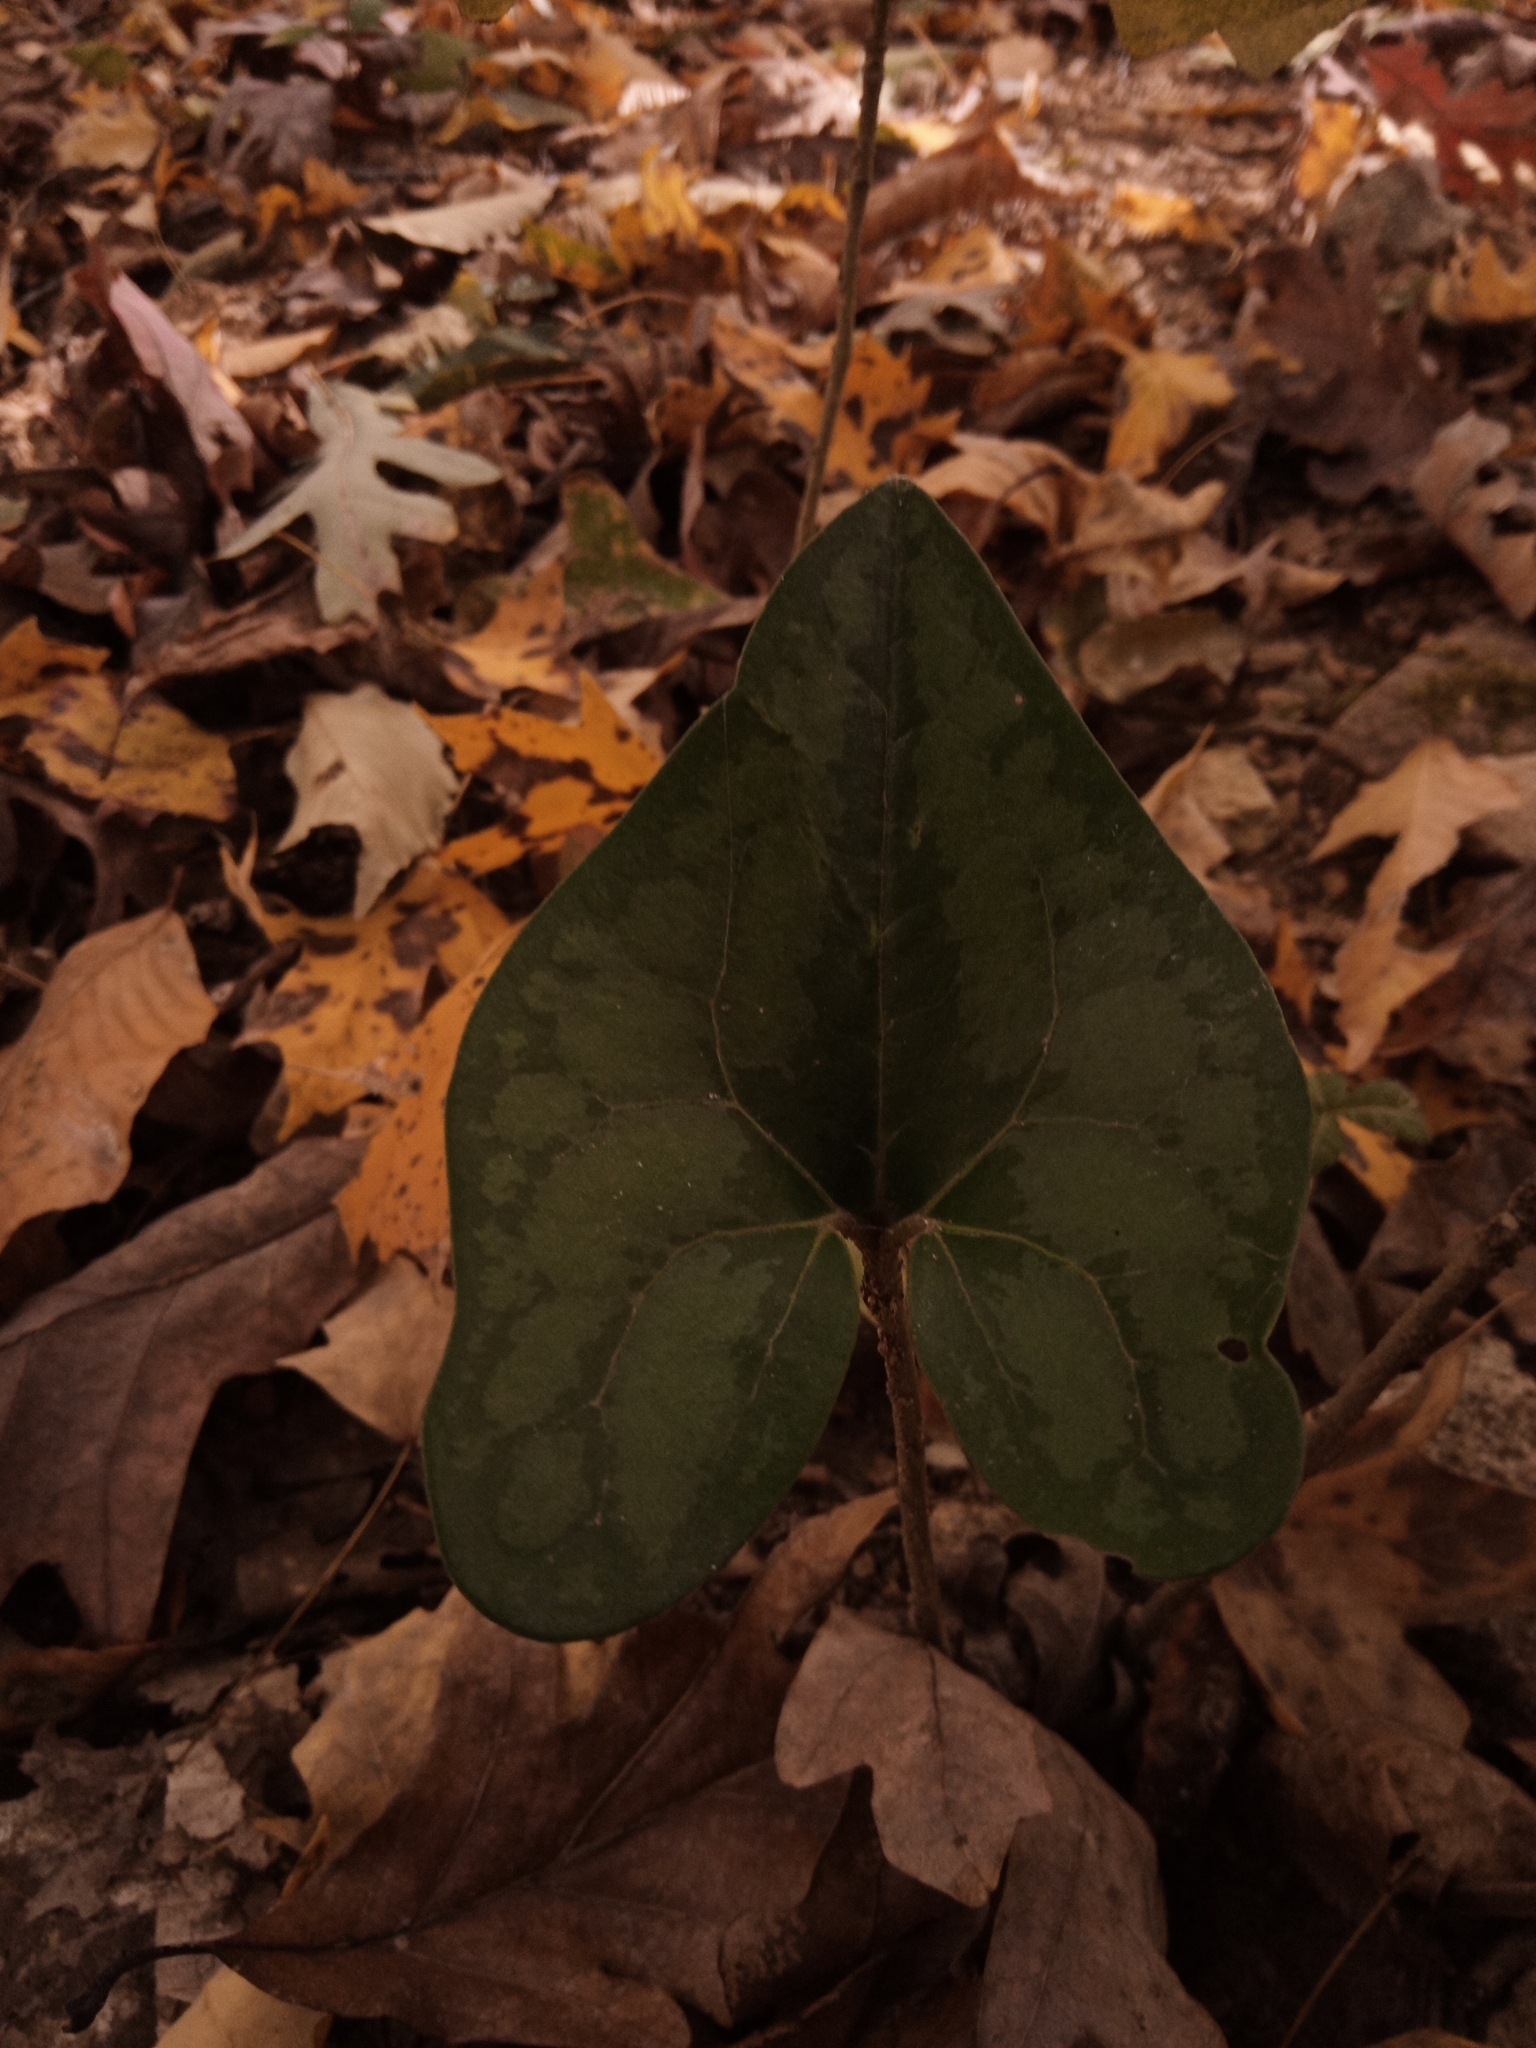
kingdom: Plantae
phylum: Tracheophyta
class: Magnoliopsida
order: Piperales
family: Aristolochiaceae
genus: Hexastylis
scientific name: Hexastylis arifolia
